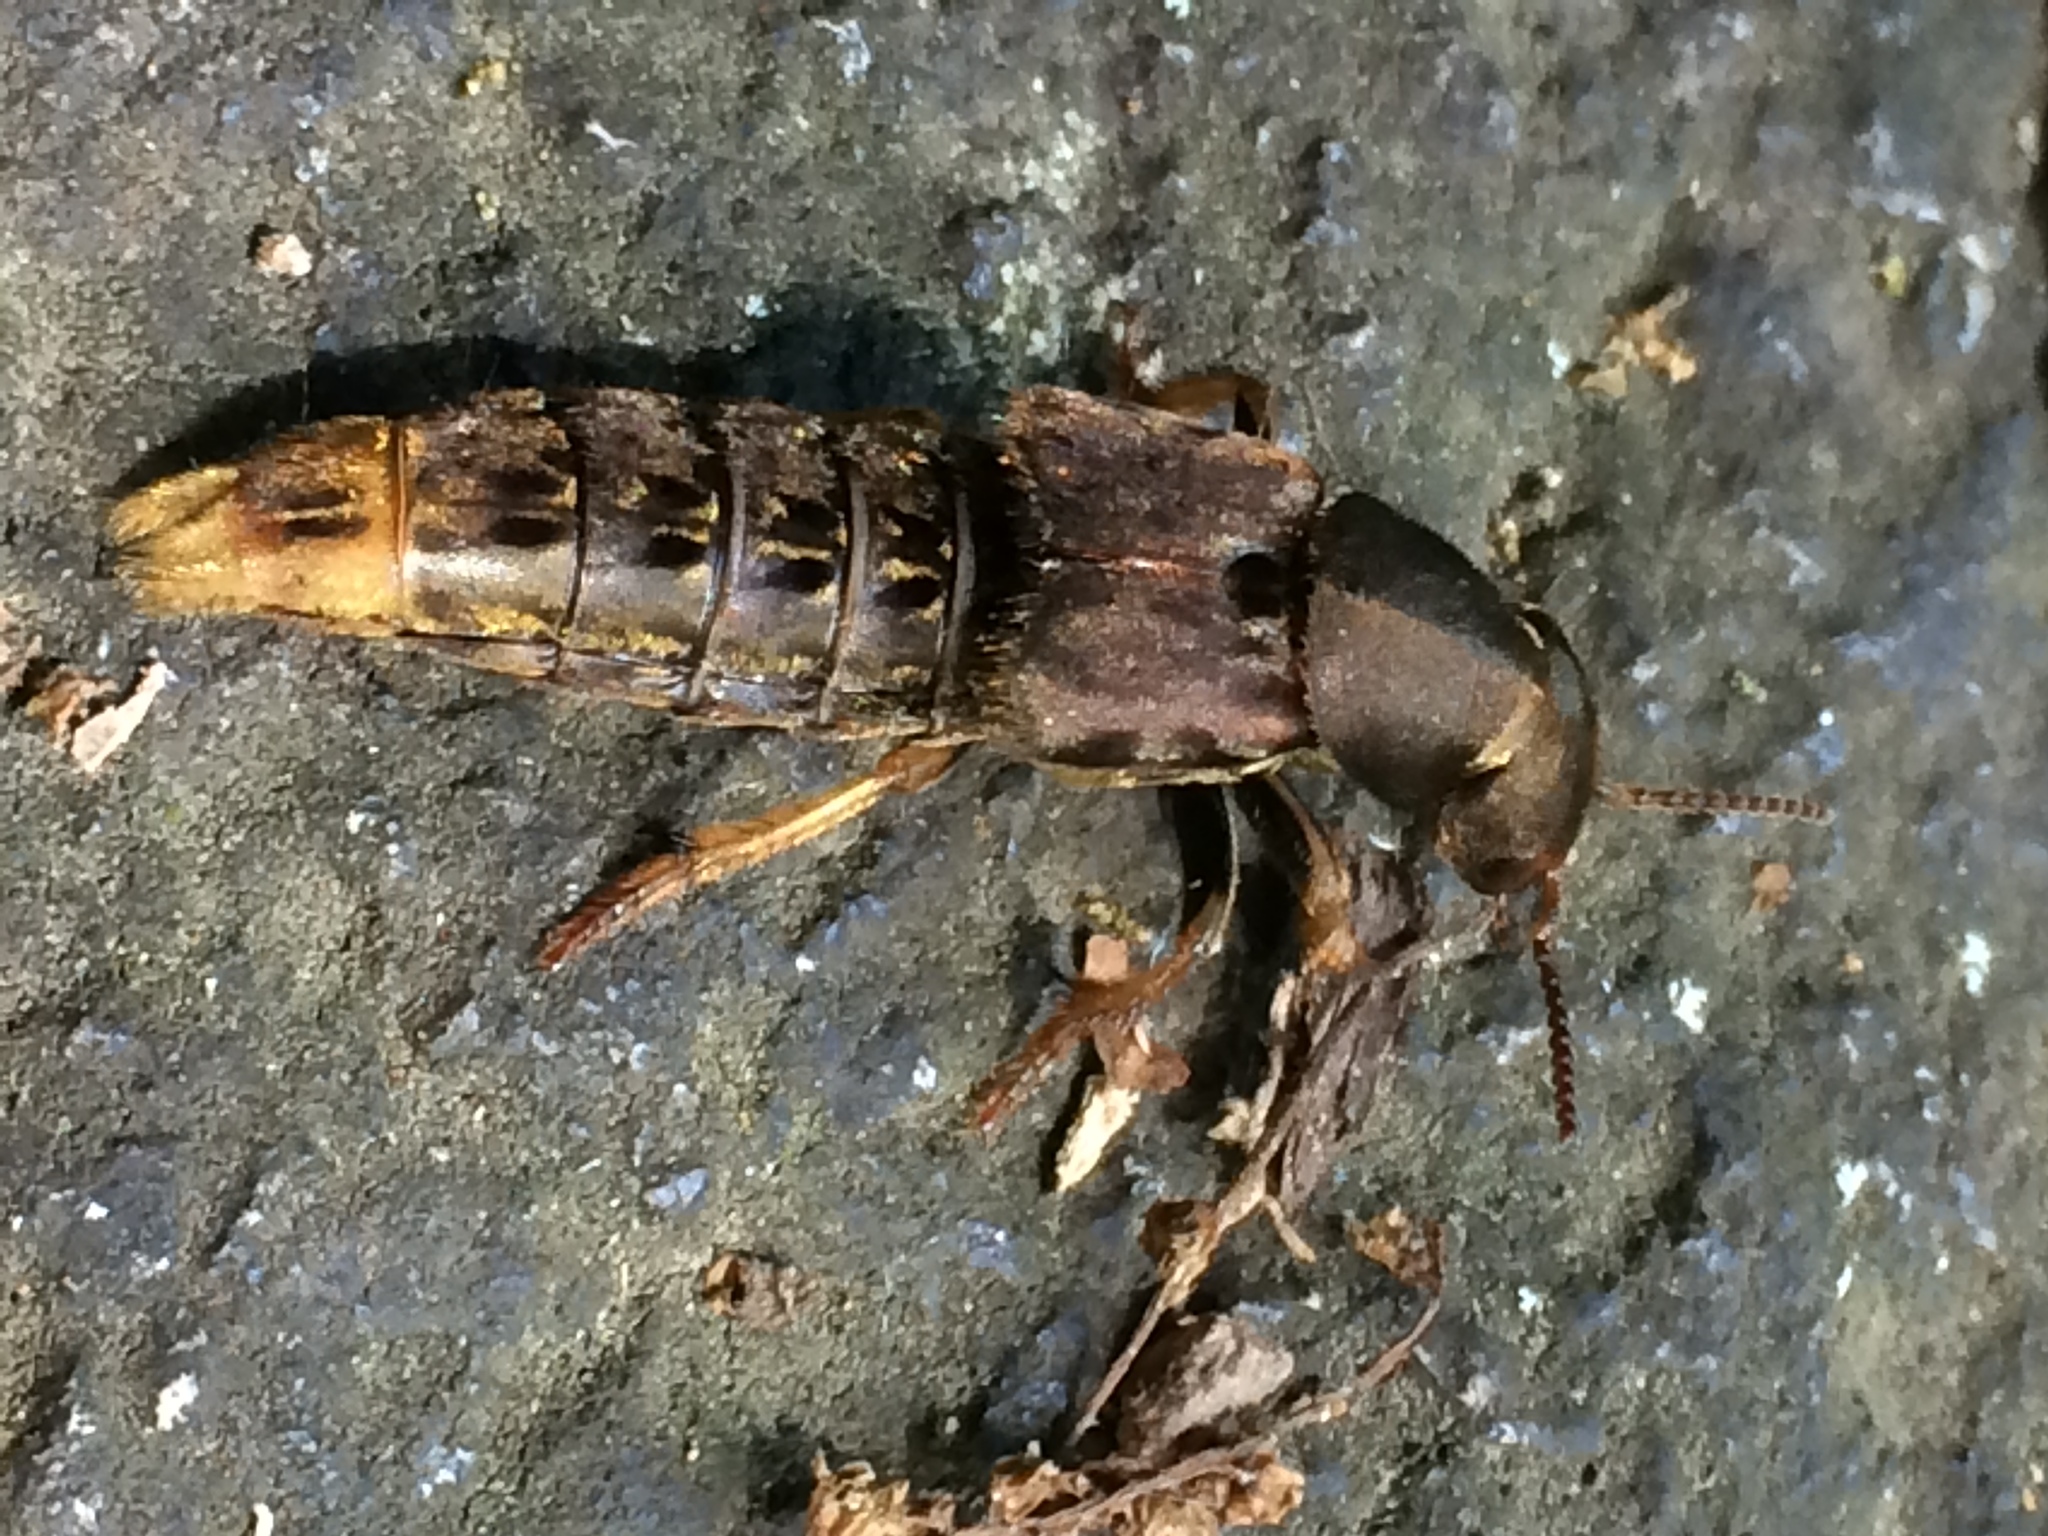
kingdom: Animalia
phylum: Arthropoda
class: Insecta
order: Coleoptera
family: Staphylinidae
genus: Platydracus
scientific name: Platydracus maculosus
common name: Brown rove beetle
